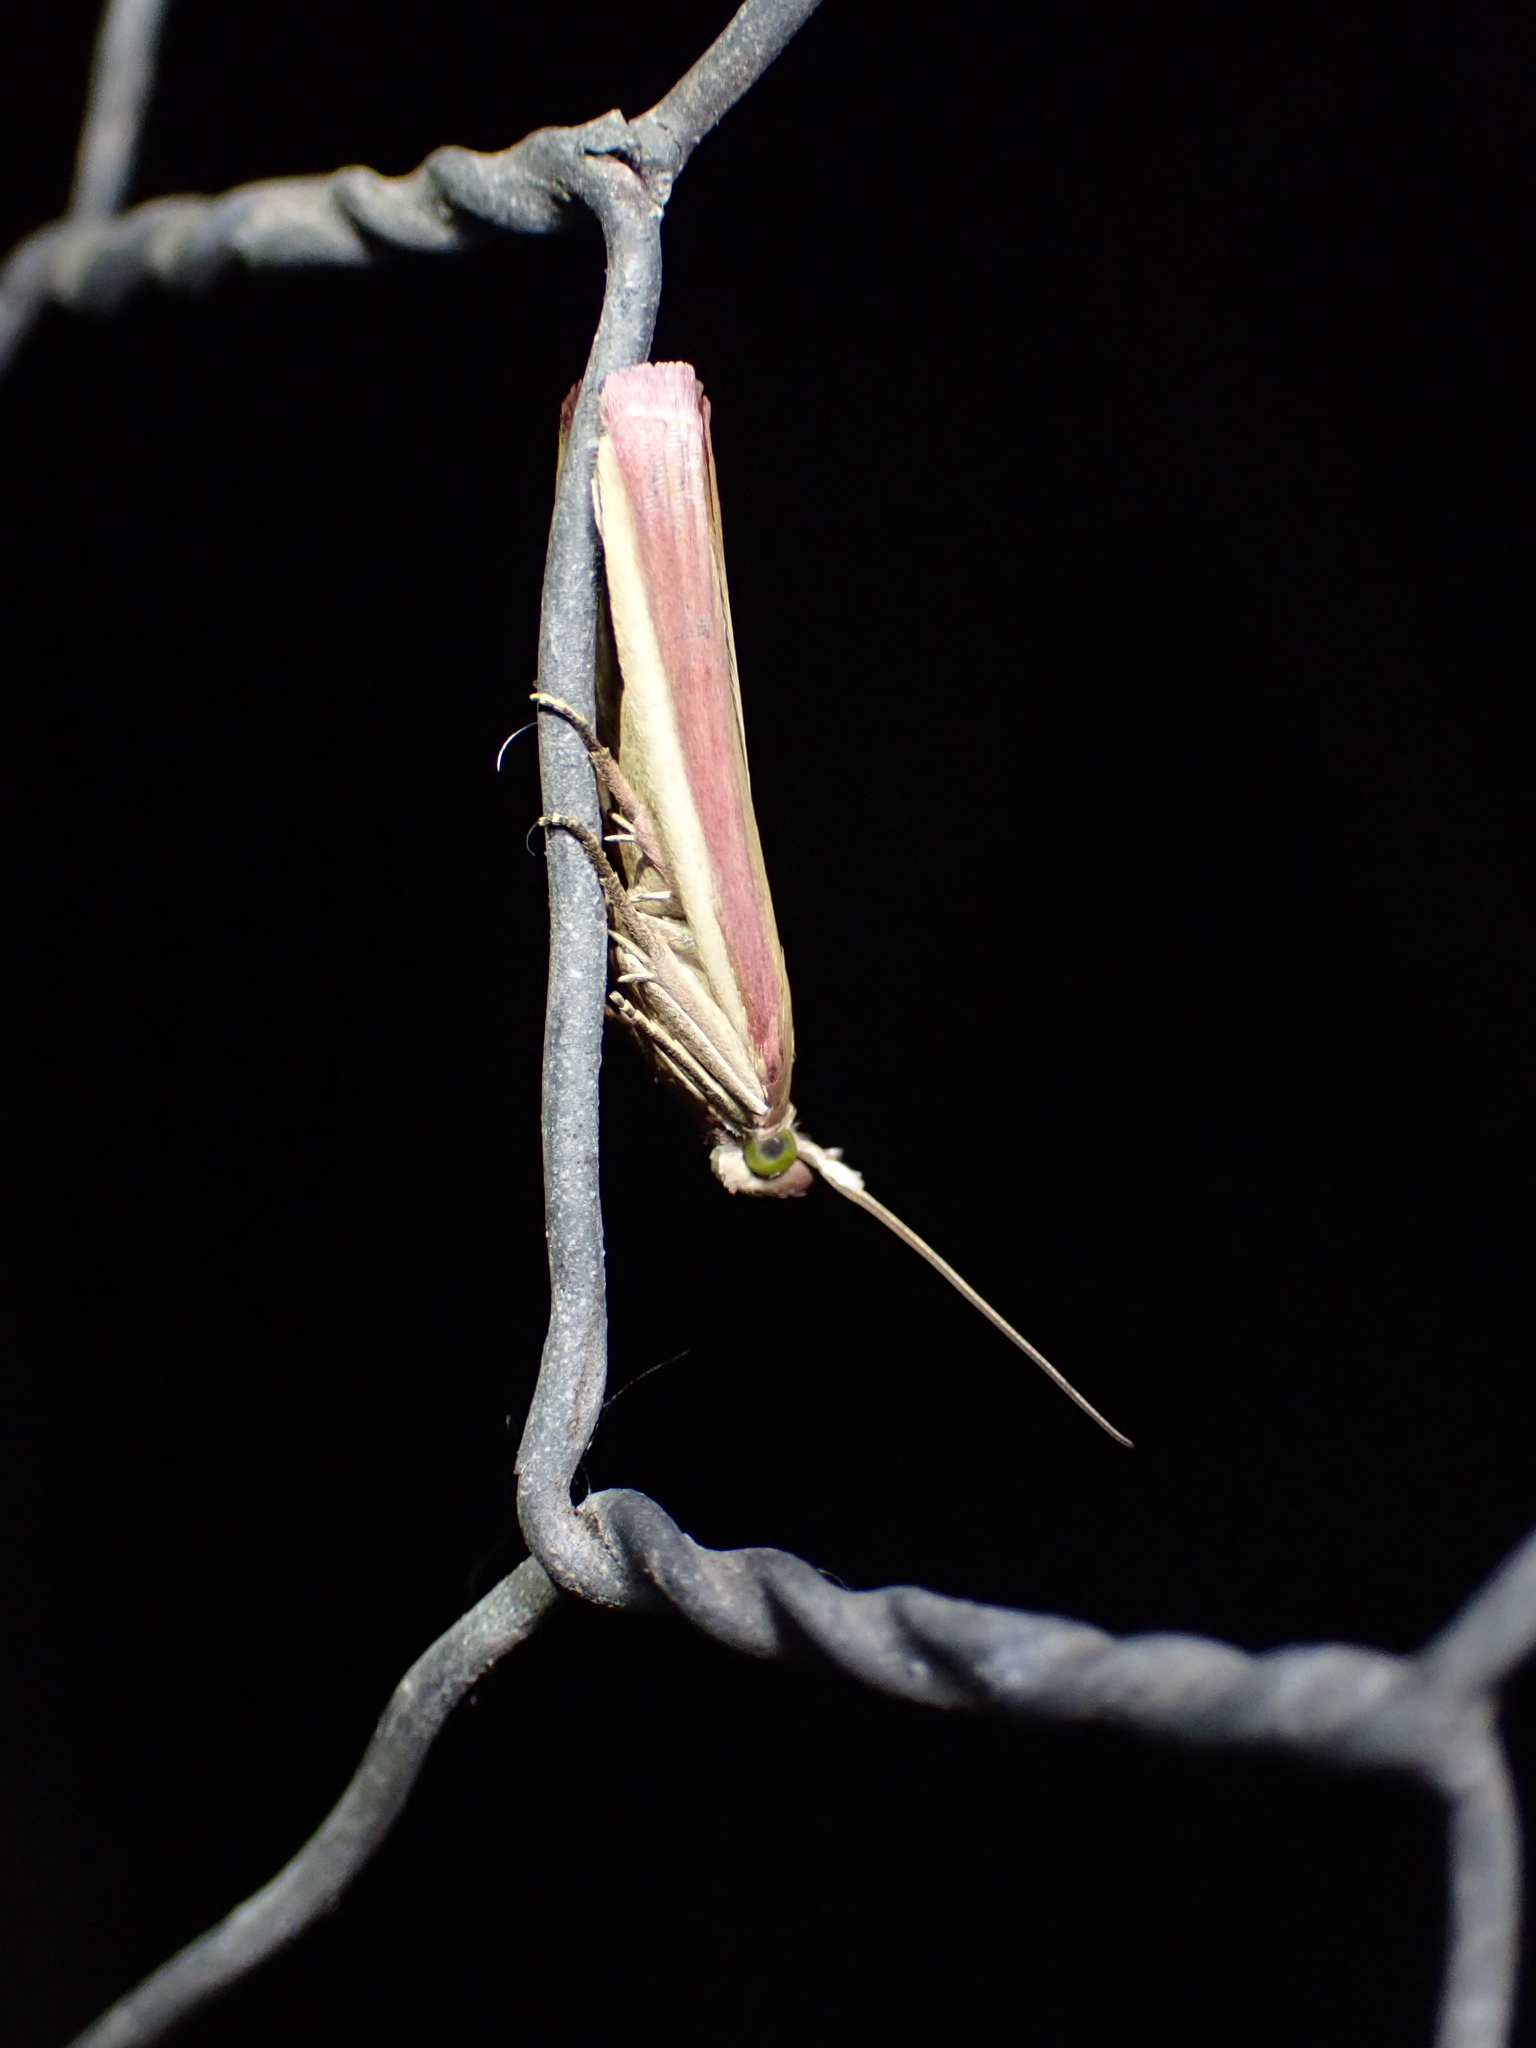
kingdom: Animalia
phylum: Arthropoda
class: Insecta
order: Lepidoptera
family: Pyralidae
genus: Oncocera
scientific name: Oncocera semirubella
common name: Rosy-striped knot-horn
